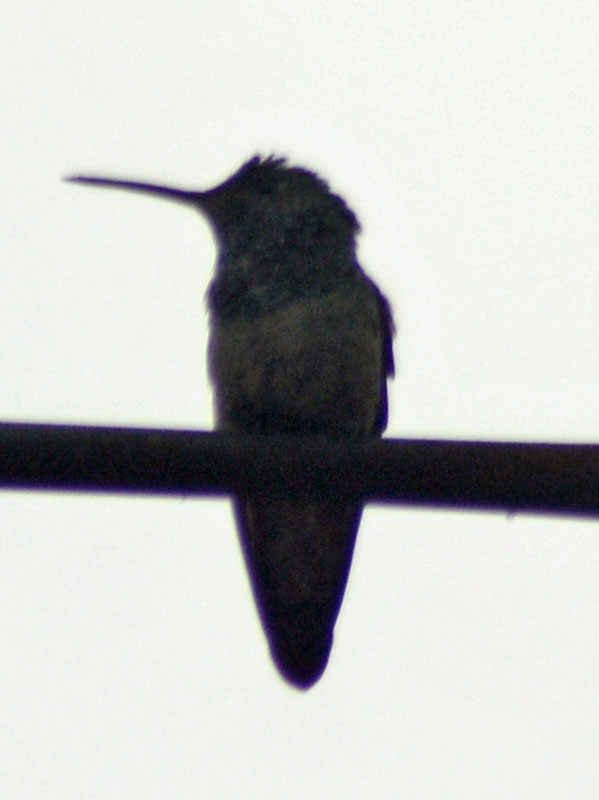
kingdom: Animalia
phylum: Chordata
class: Aves
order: Apodiformes
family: Trochilidae
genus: Saucerottia
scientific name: Saucerottia beryllina
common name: Berylline hummingbird
